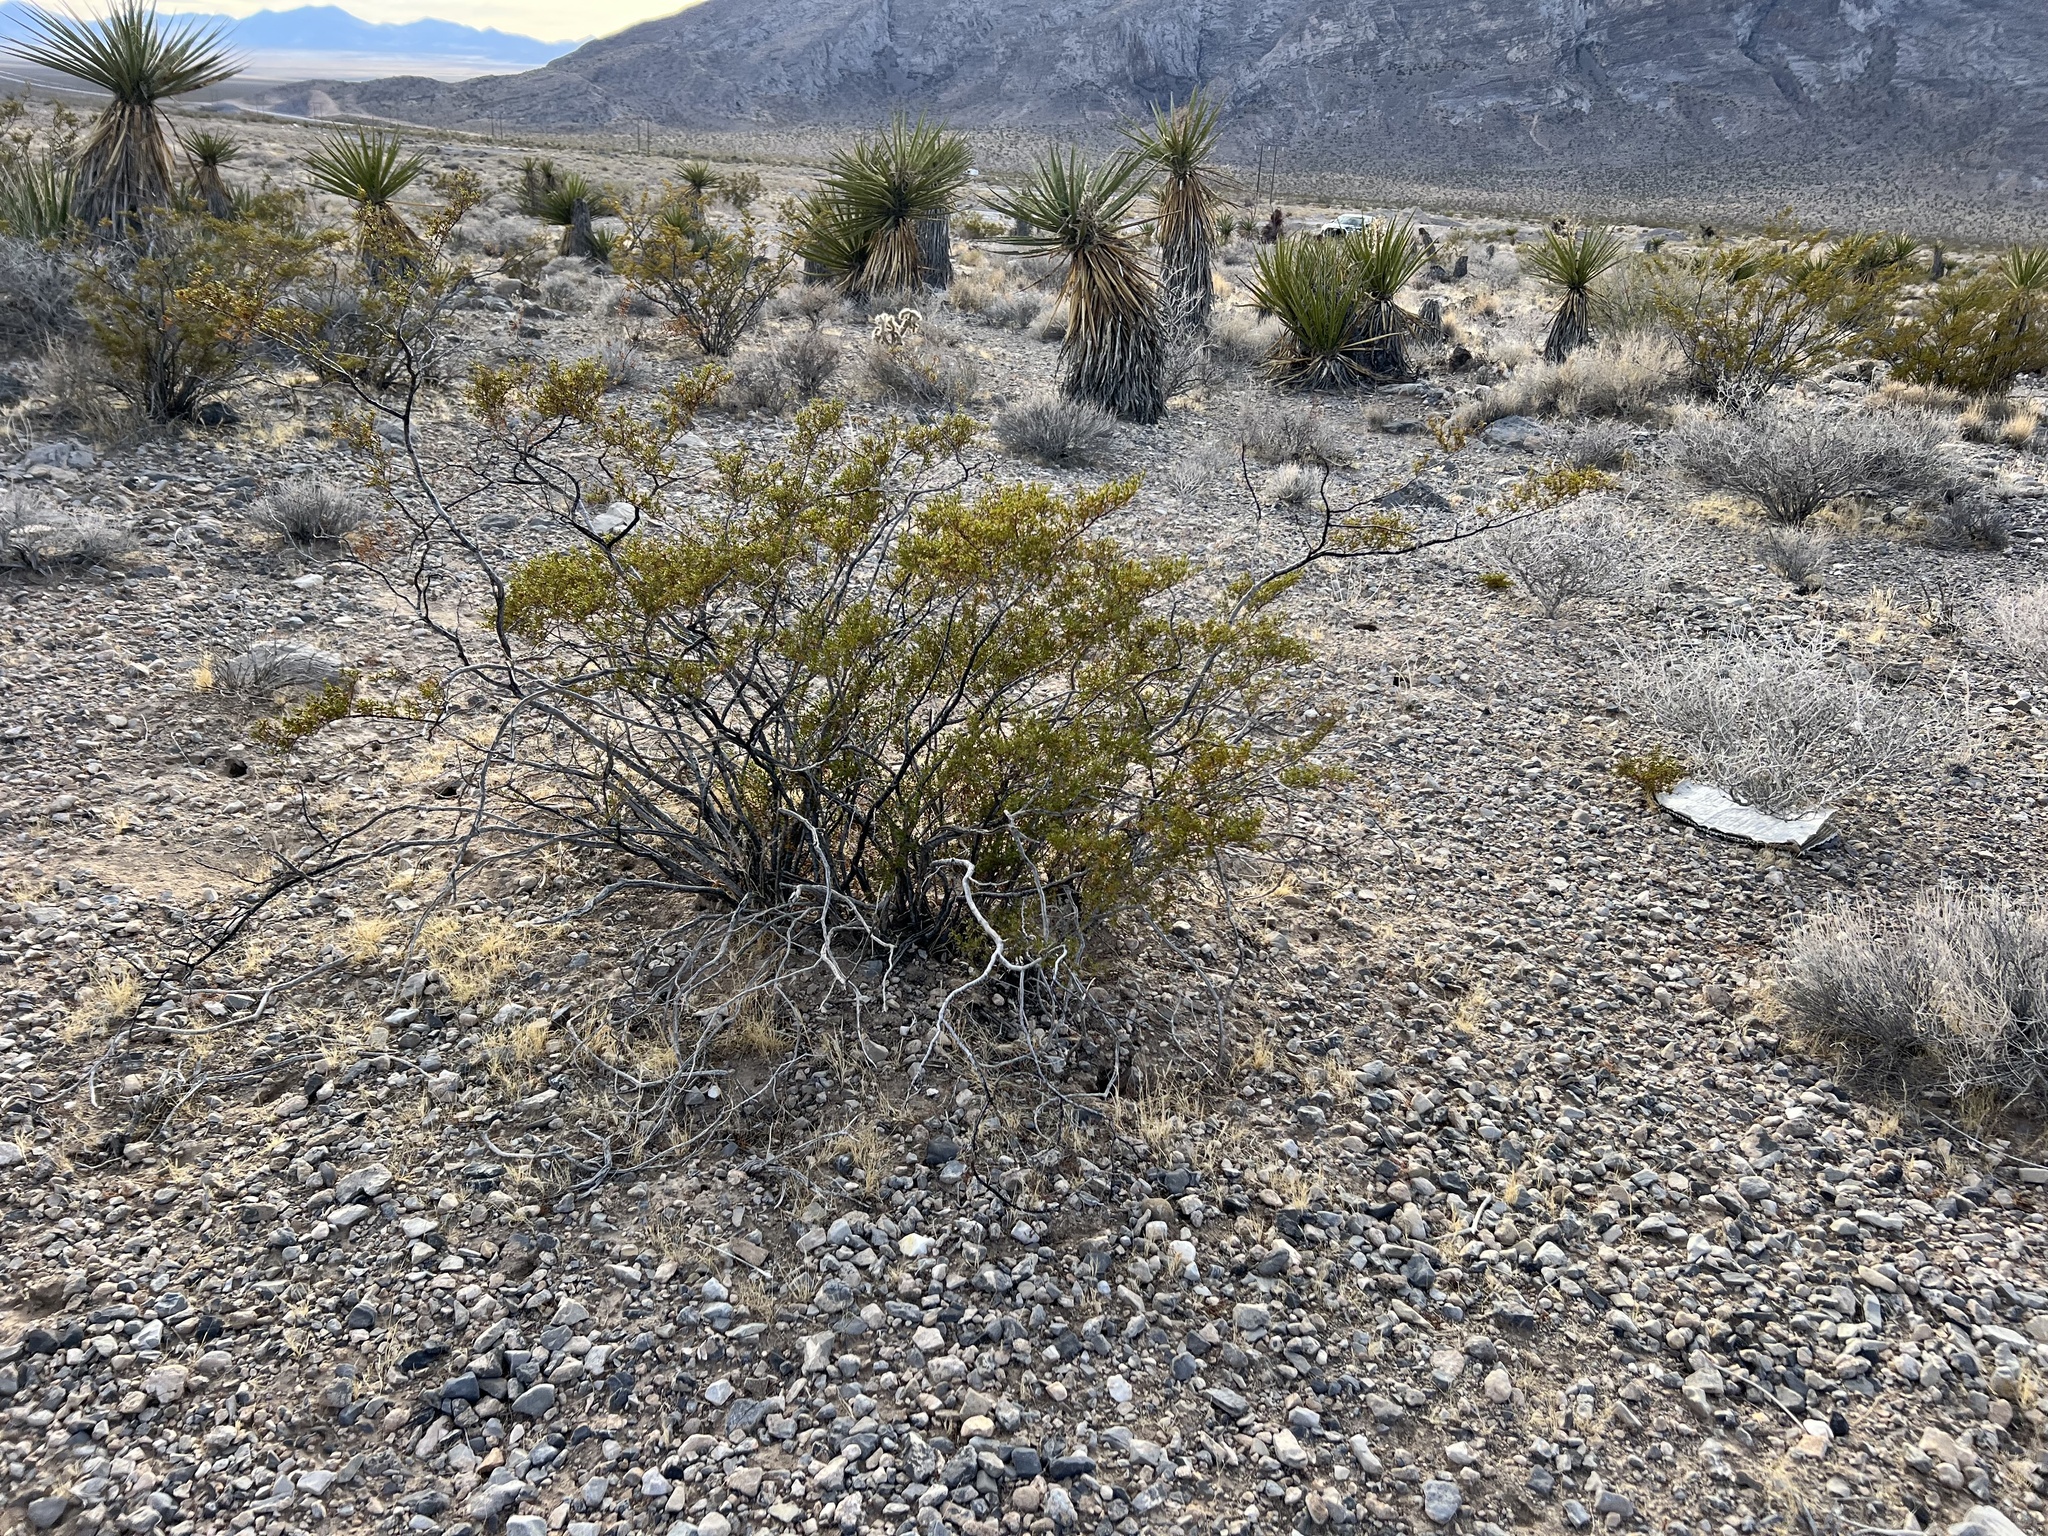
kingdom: Plantae
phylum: Tracheophyta
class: Magnoliopsida
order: Zygophyllales
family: Zygophyllaceae
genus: Larrea
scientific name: Larrea tridentata
